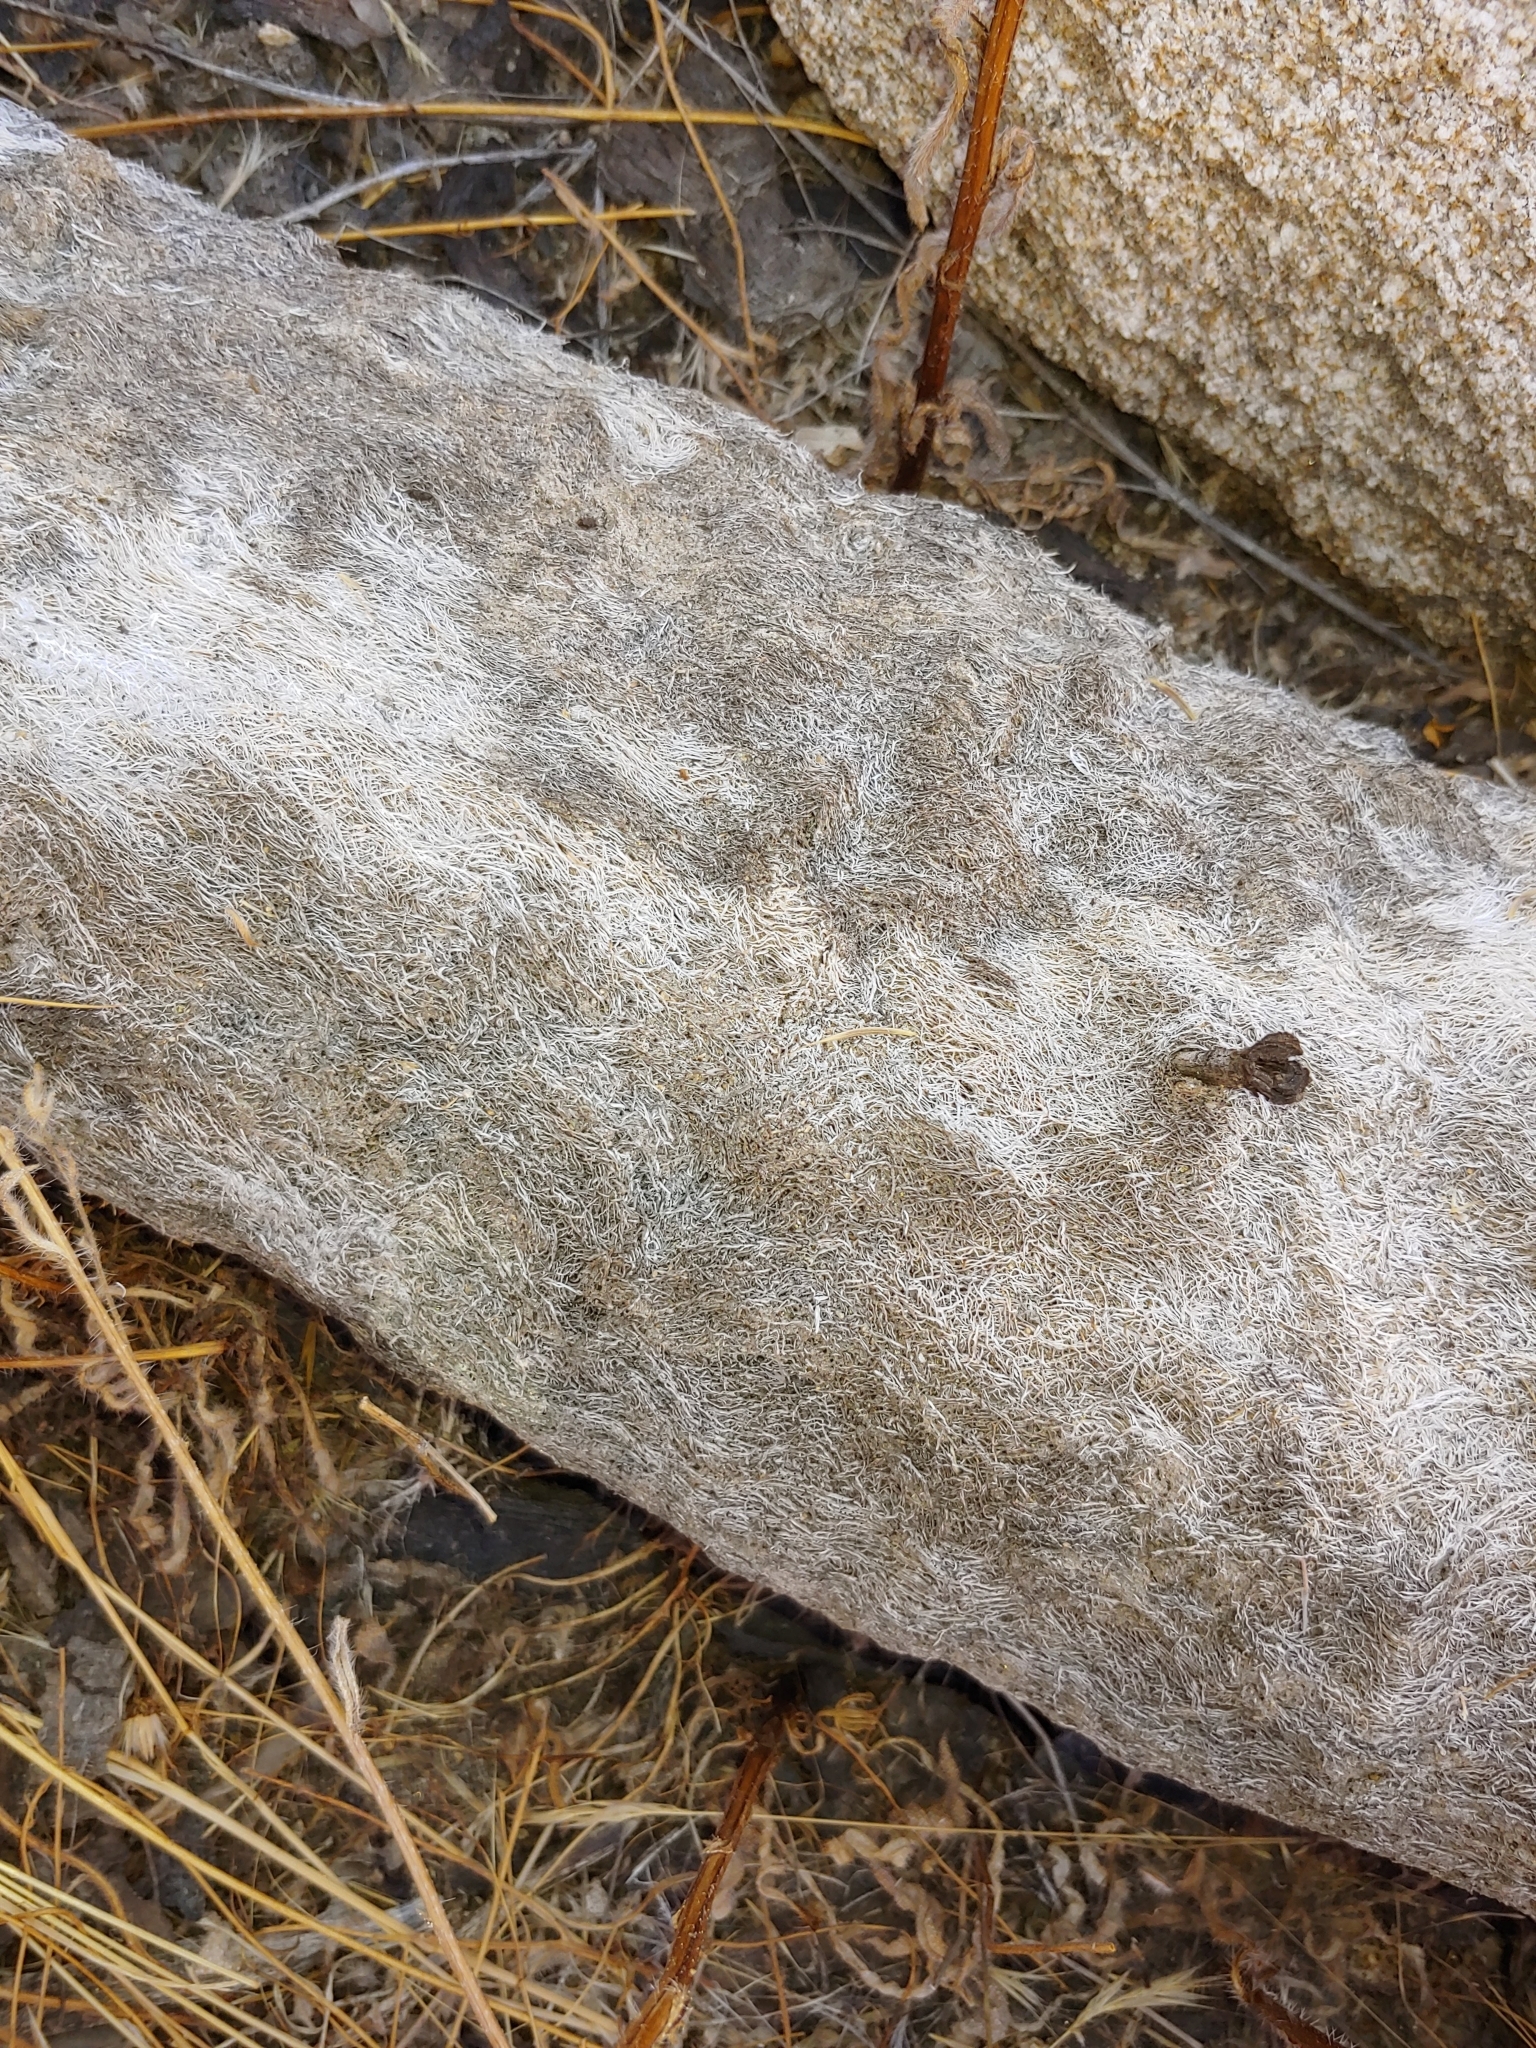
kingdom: Plantae
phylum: Tracheophyta
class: Liliopsida
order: Asparagales
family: Asparagaceae
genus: Yucca
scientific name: Yucca brevifolia
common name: Joshua tree
